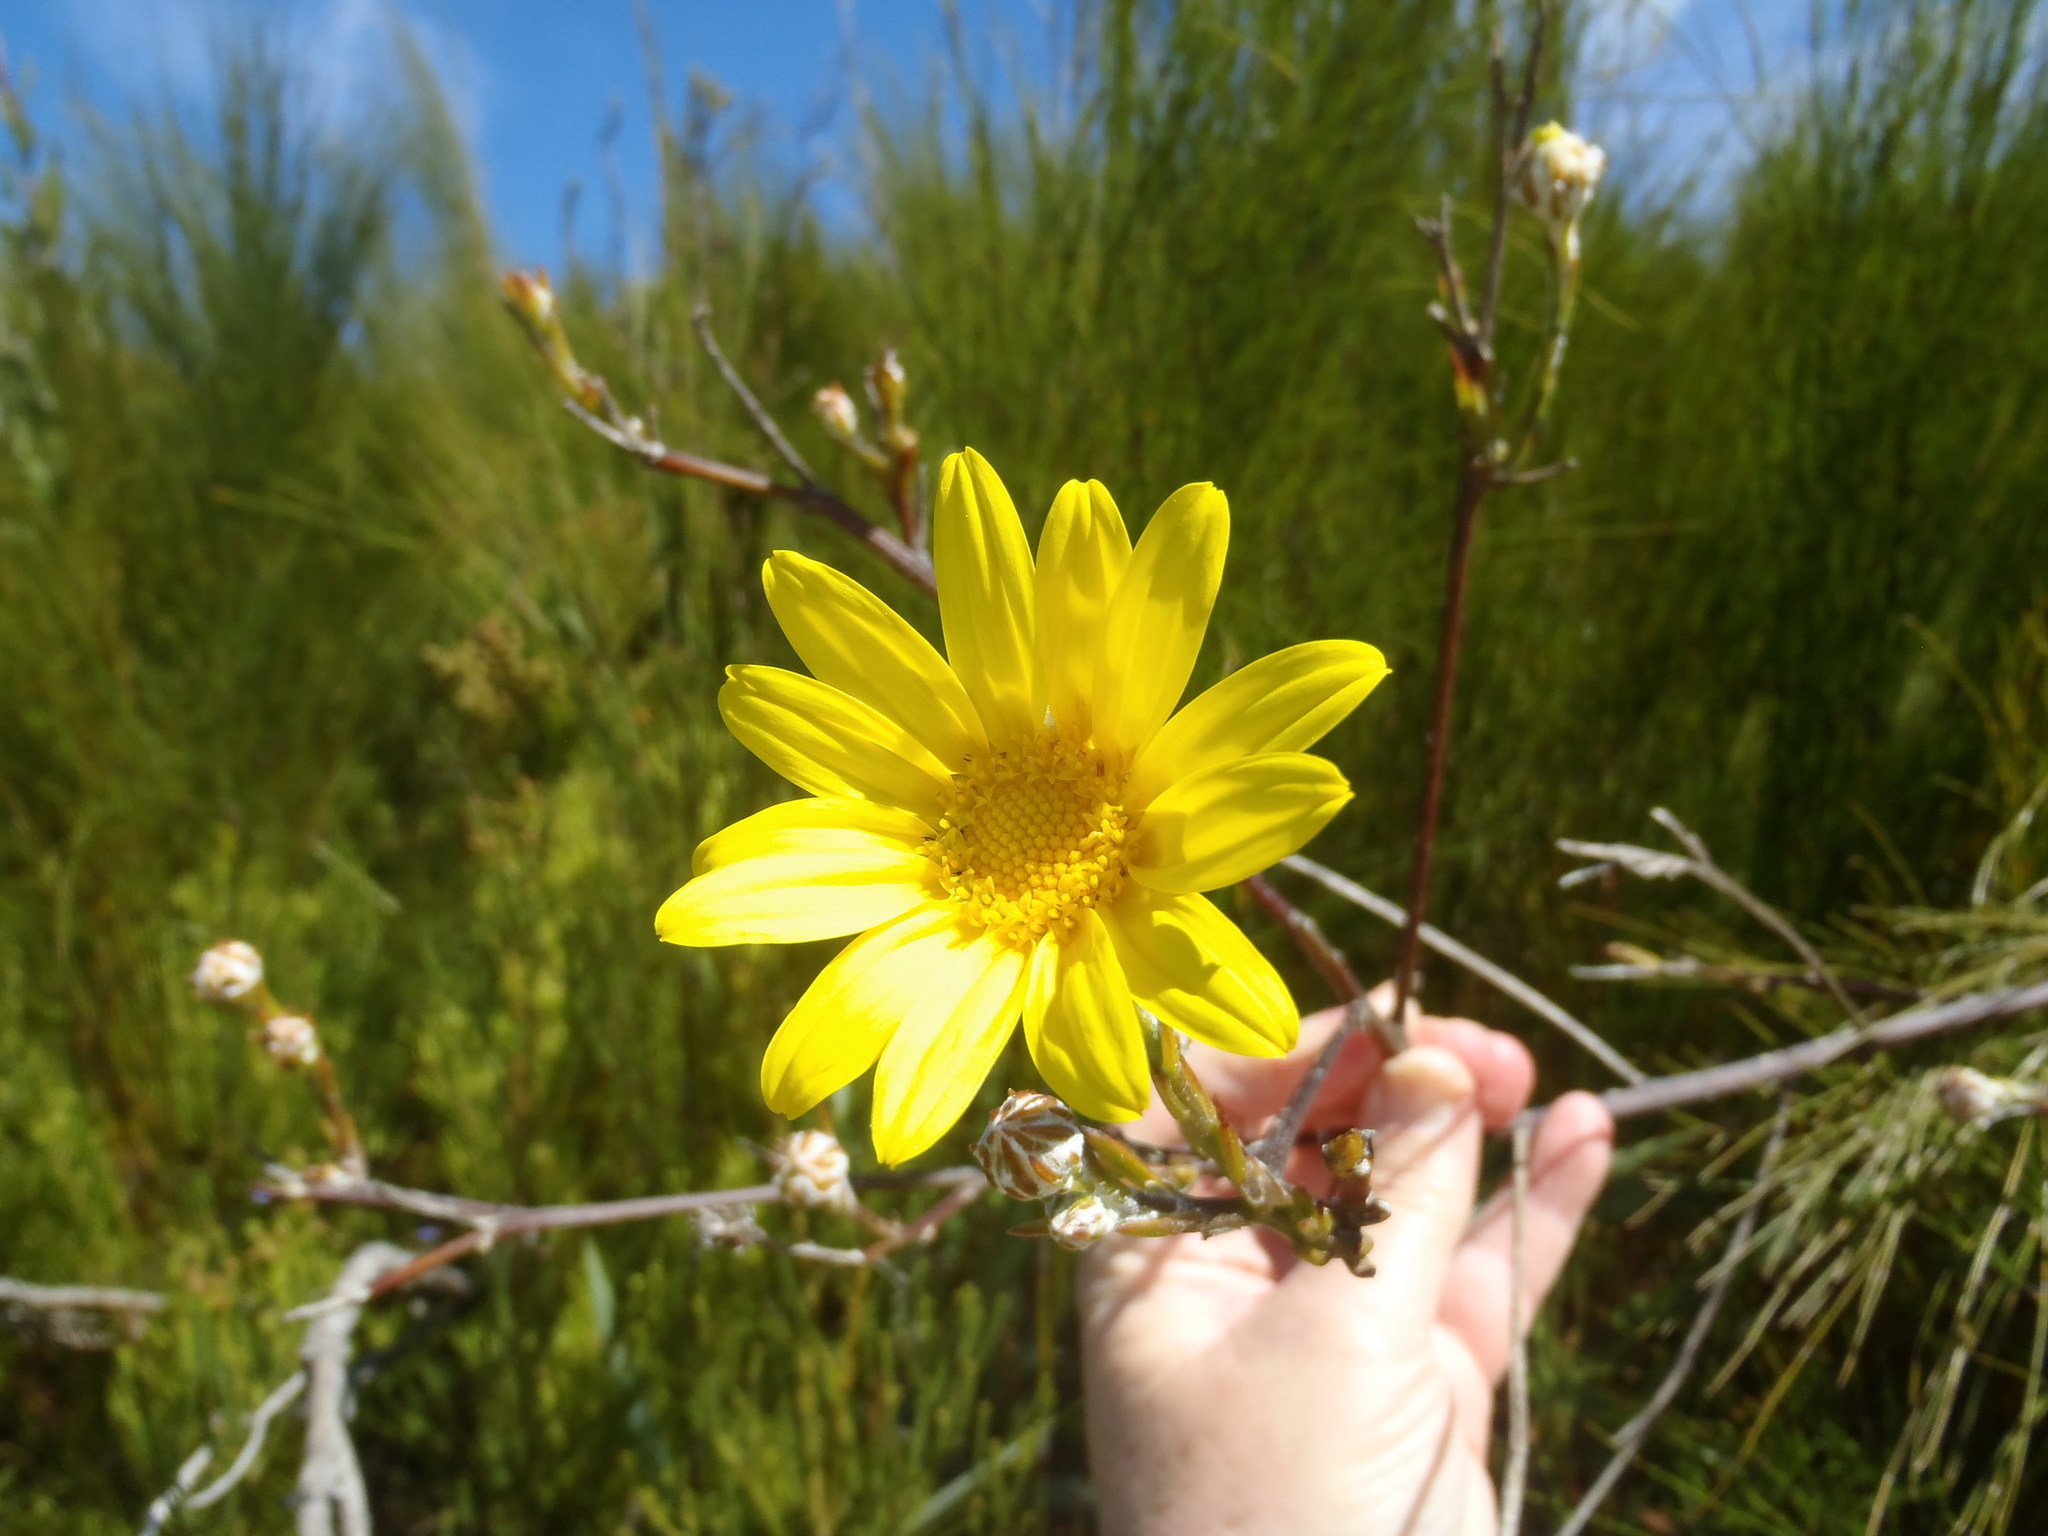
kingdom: Plantae
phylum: Tracheophyta
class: Magnoliopsida
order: Asterales
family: Asteraceae
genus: Osteospermum
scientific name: Osteospermum junceum
